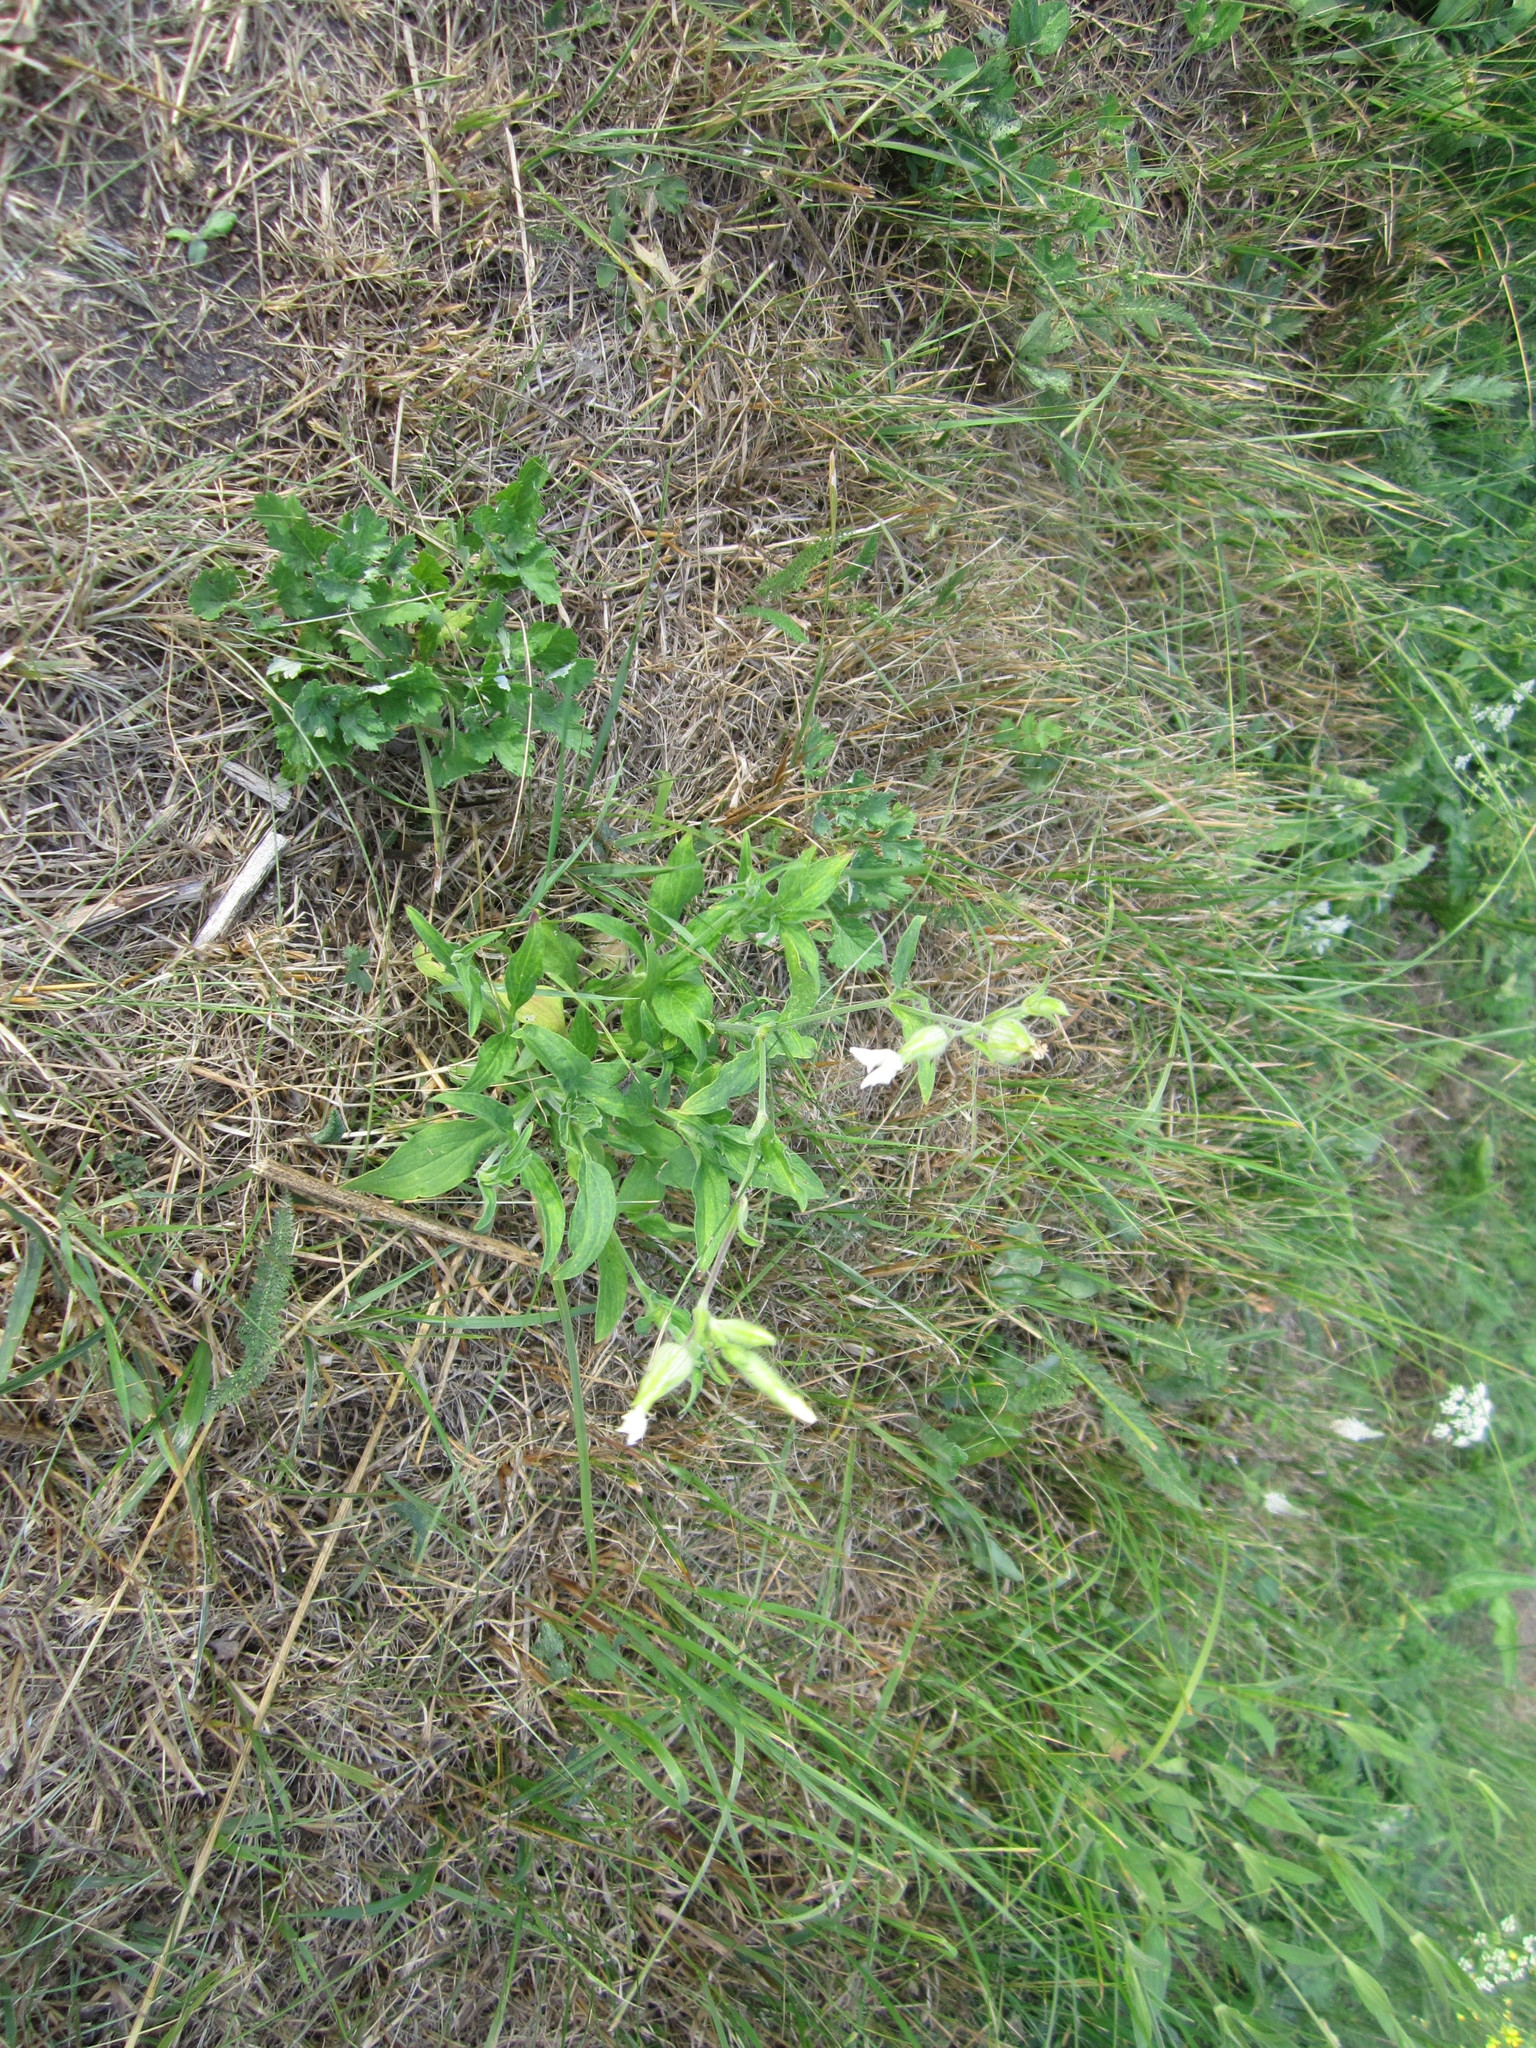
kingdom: Plantae
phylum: Tracheophyta
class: Magnoliopsida
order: Caryophyllales
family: Caryophyllaceae
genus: Silene
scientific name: Silene latifolia
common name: White campion
